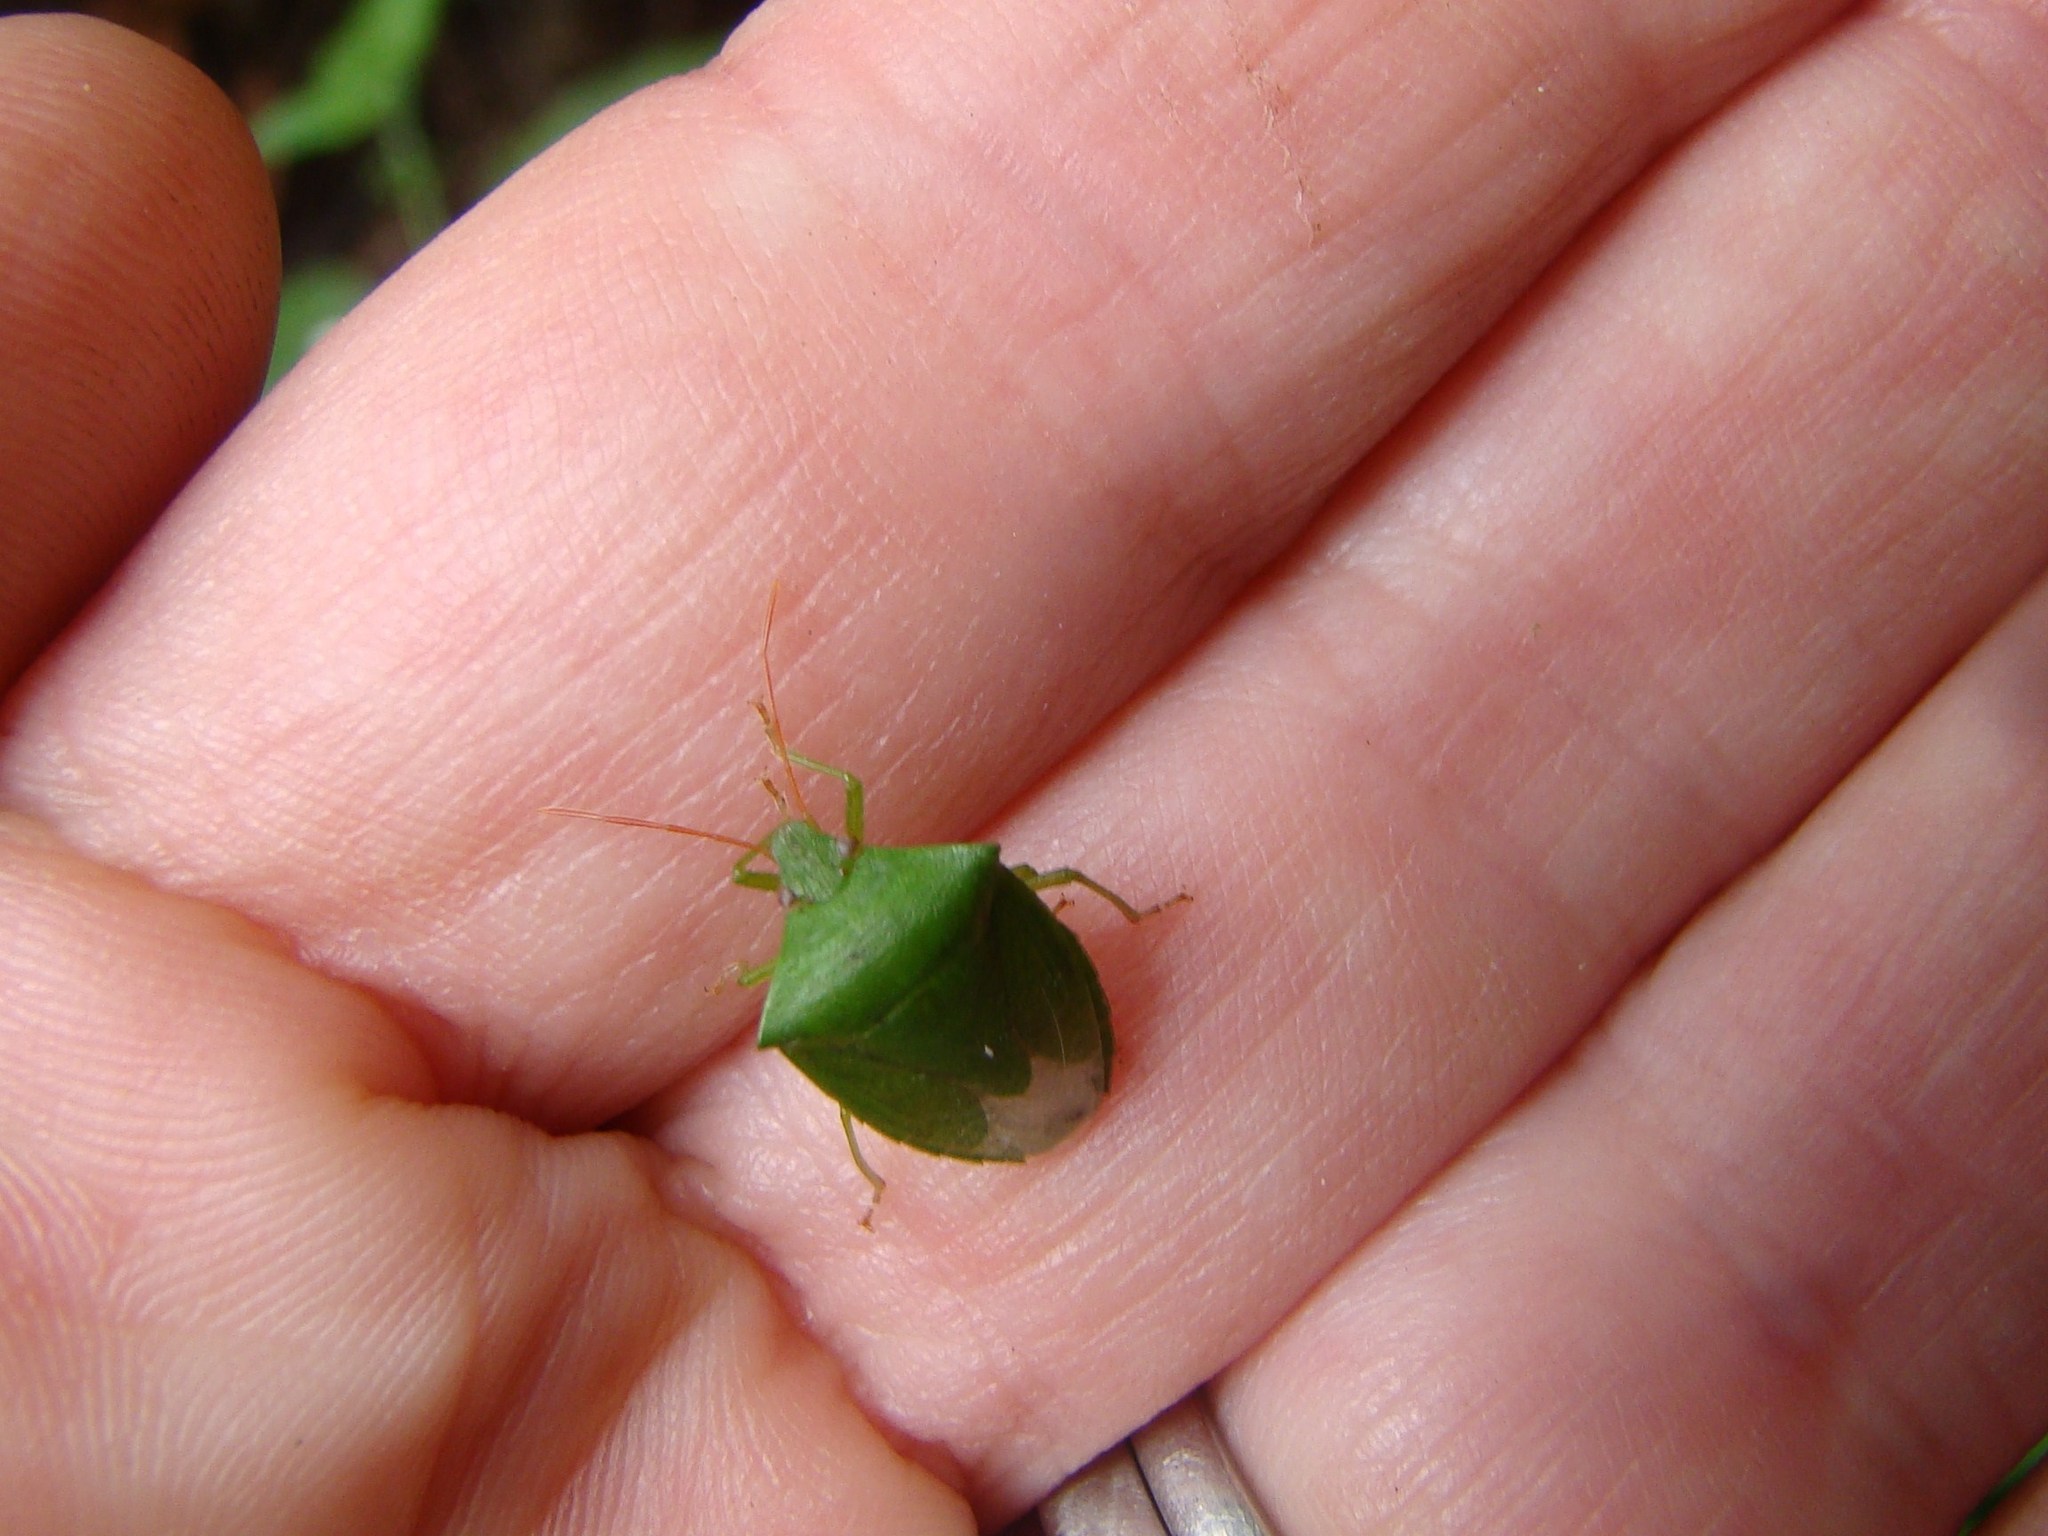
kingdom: Animalia
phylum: Arthropoda
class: Insecta
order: Hemiptera
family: Pentatomidae
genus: Cuspicona
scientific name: Cuspicona simplex
